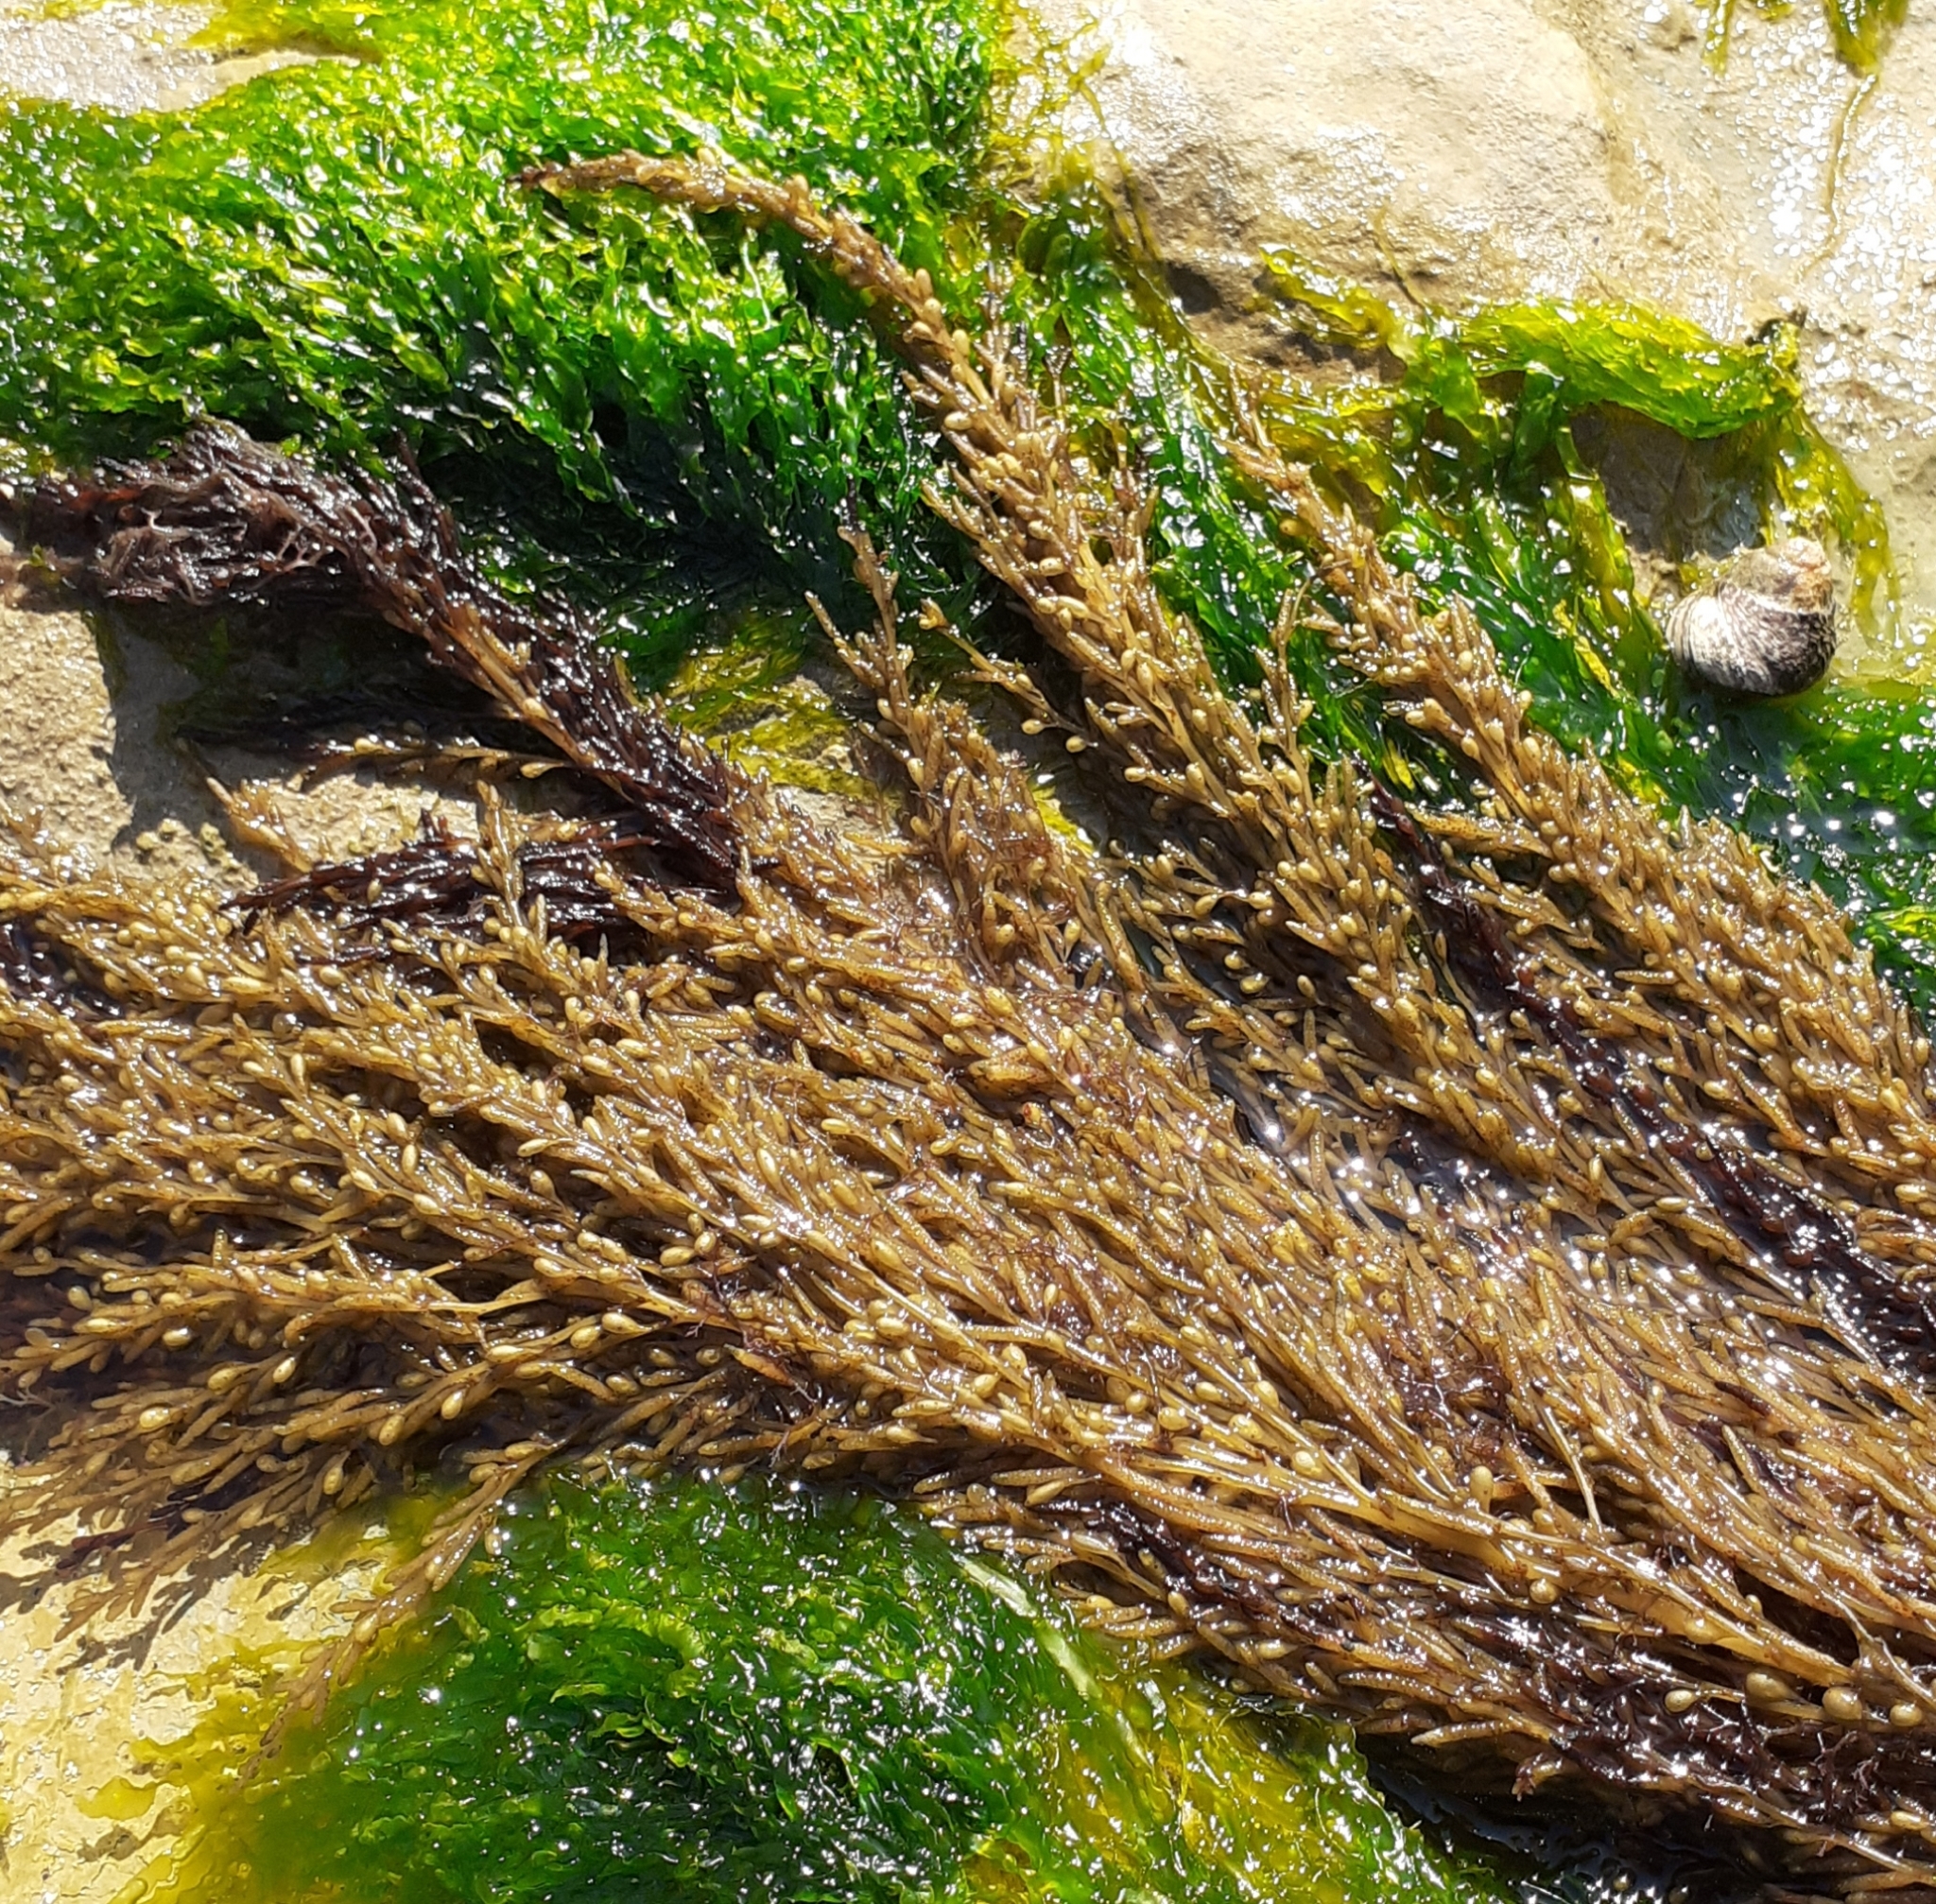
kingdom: Chromista
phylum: Ochrophyta
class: Phaeophyceae
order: Fucales
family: Sargassaceae
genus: Sargassum
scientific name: Sargassum muticum
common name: Japweed
